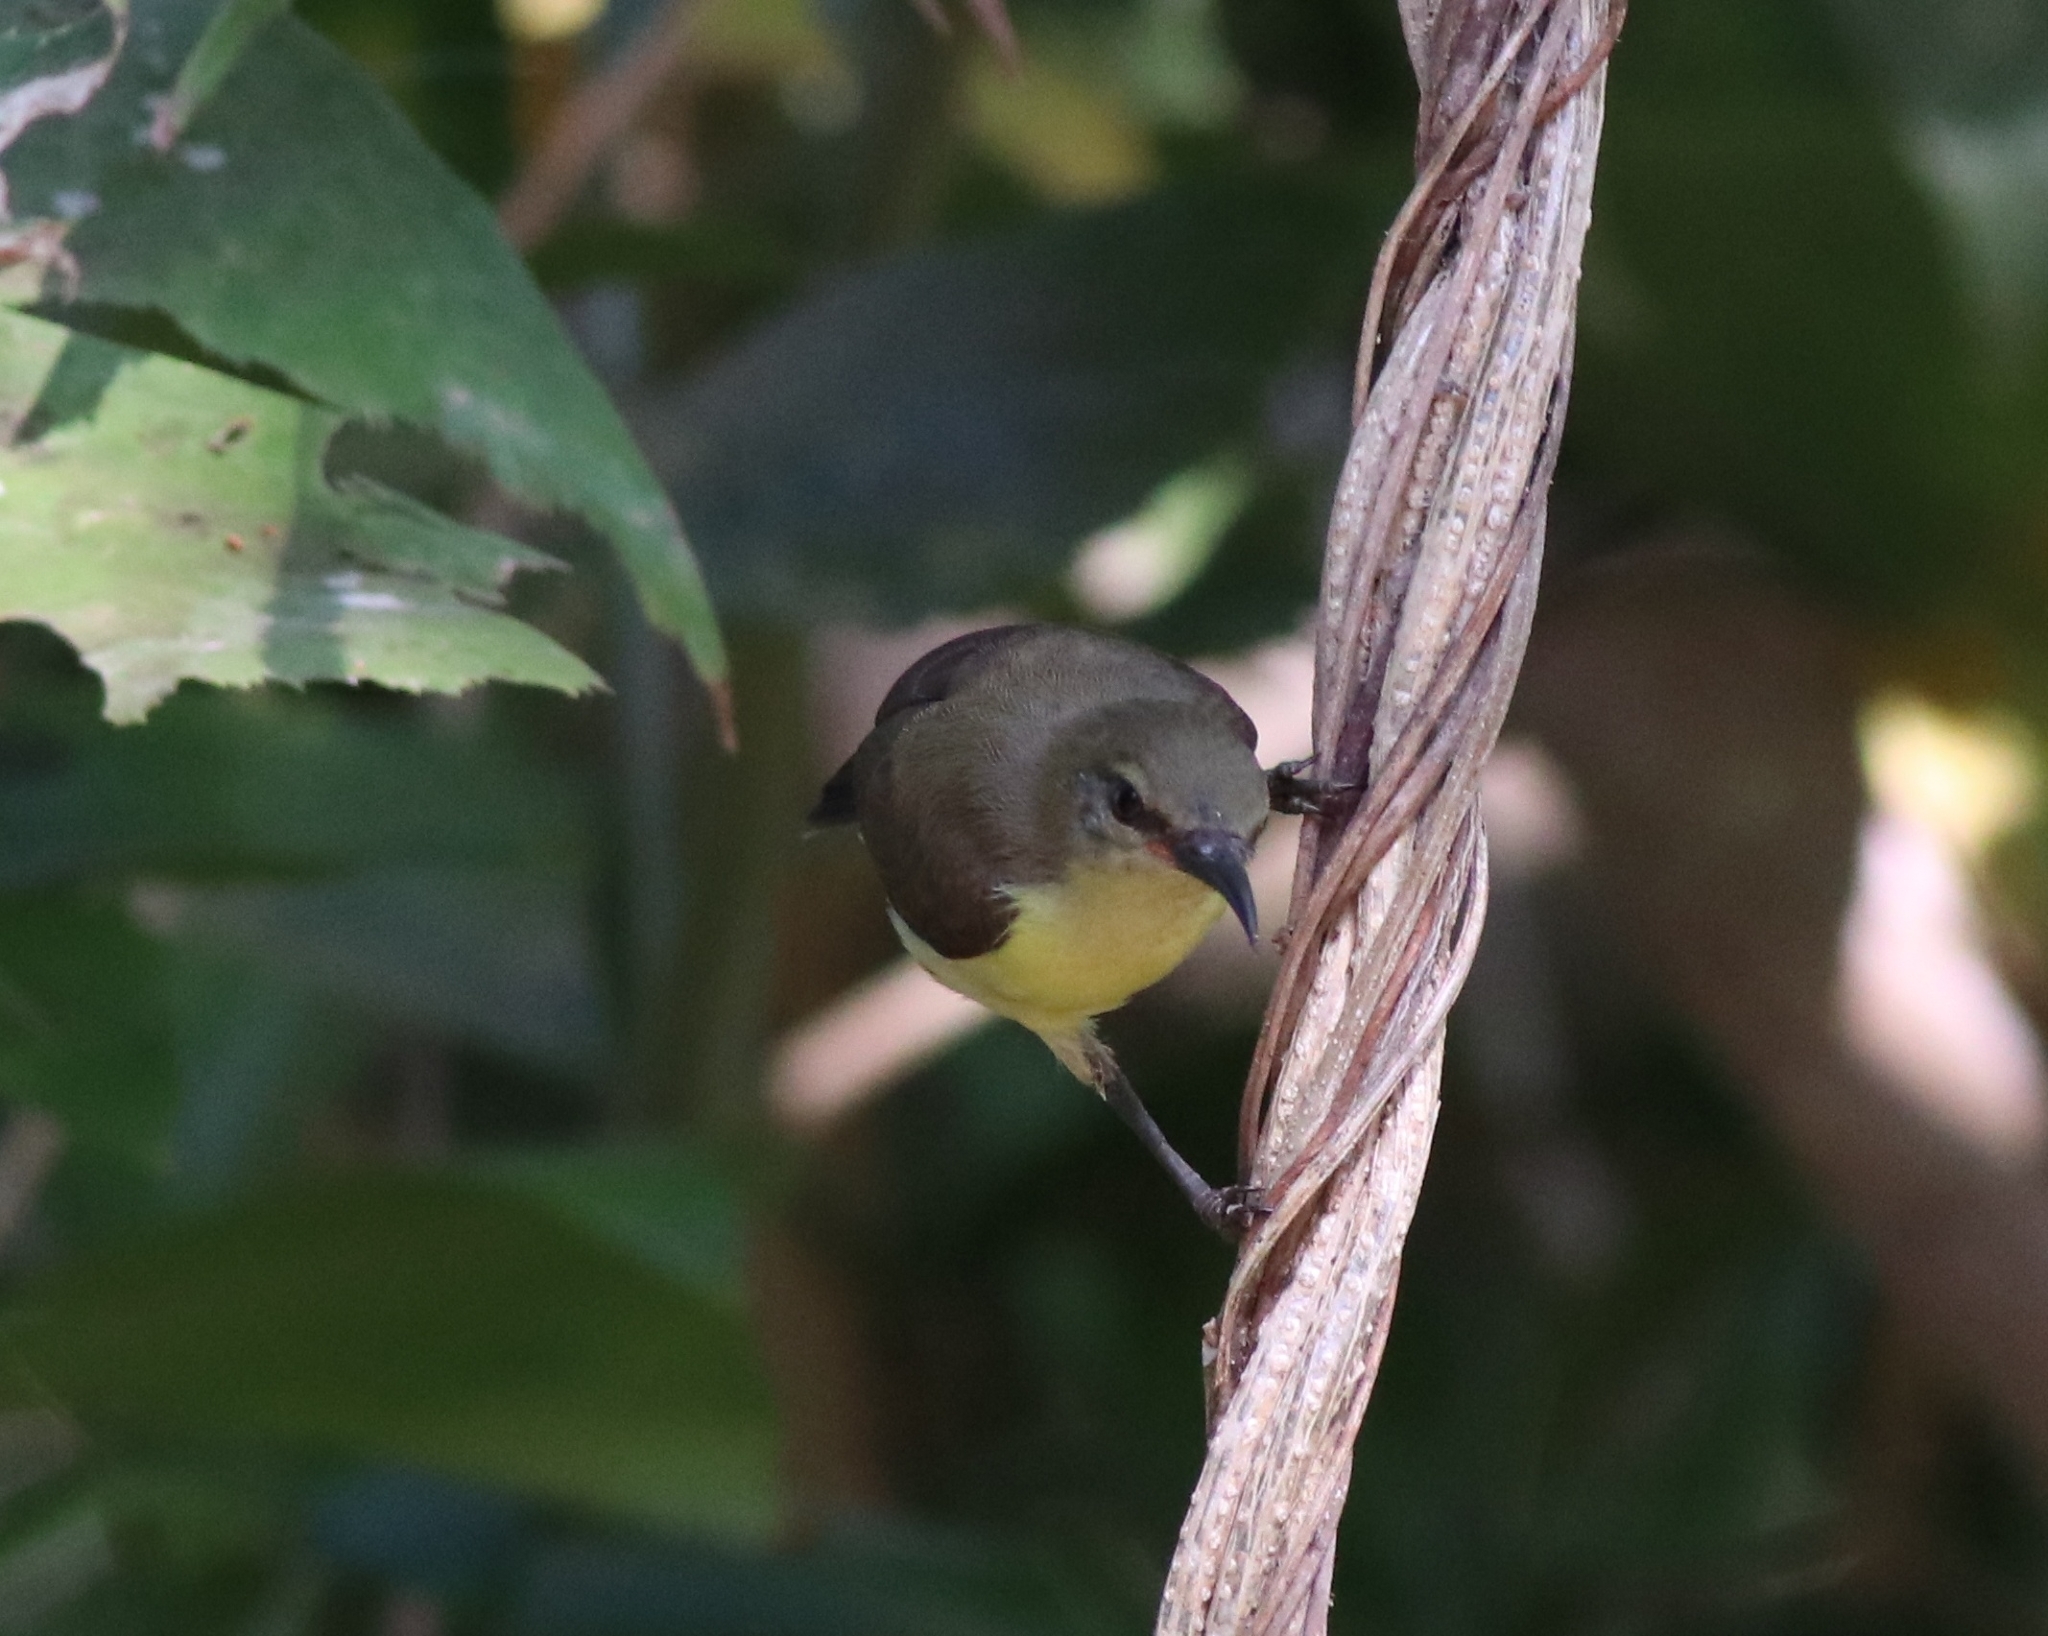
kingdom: Animalia
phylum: Chordata
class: Aves
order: Passeriformes
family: Nectariniidae
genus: Leptocoma
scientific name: Leptocoma zeylonica
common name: Purple-rumped sunbird
